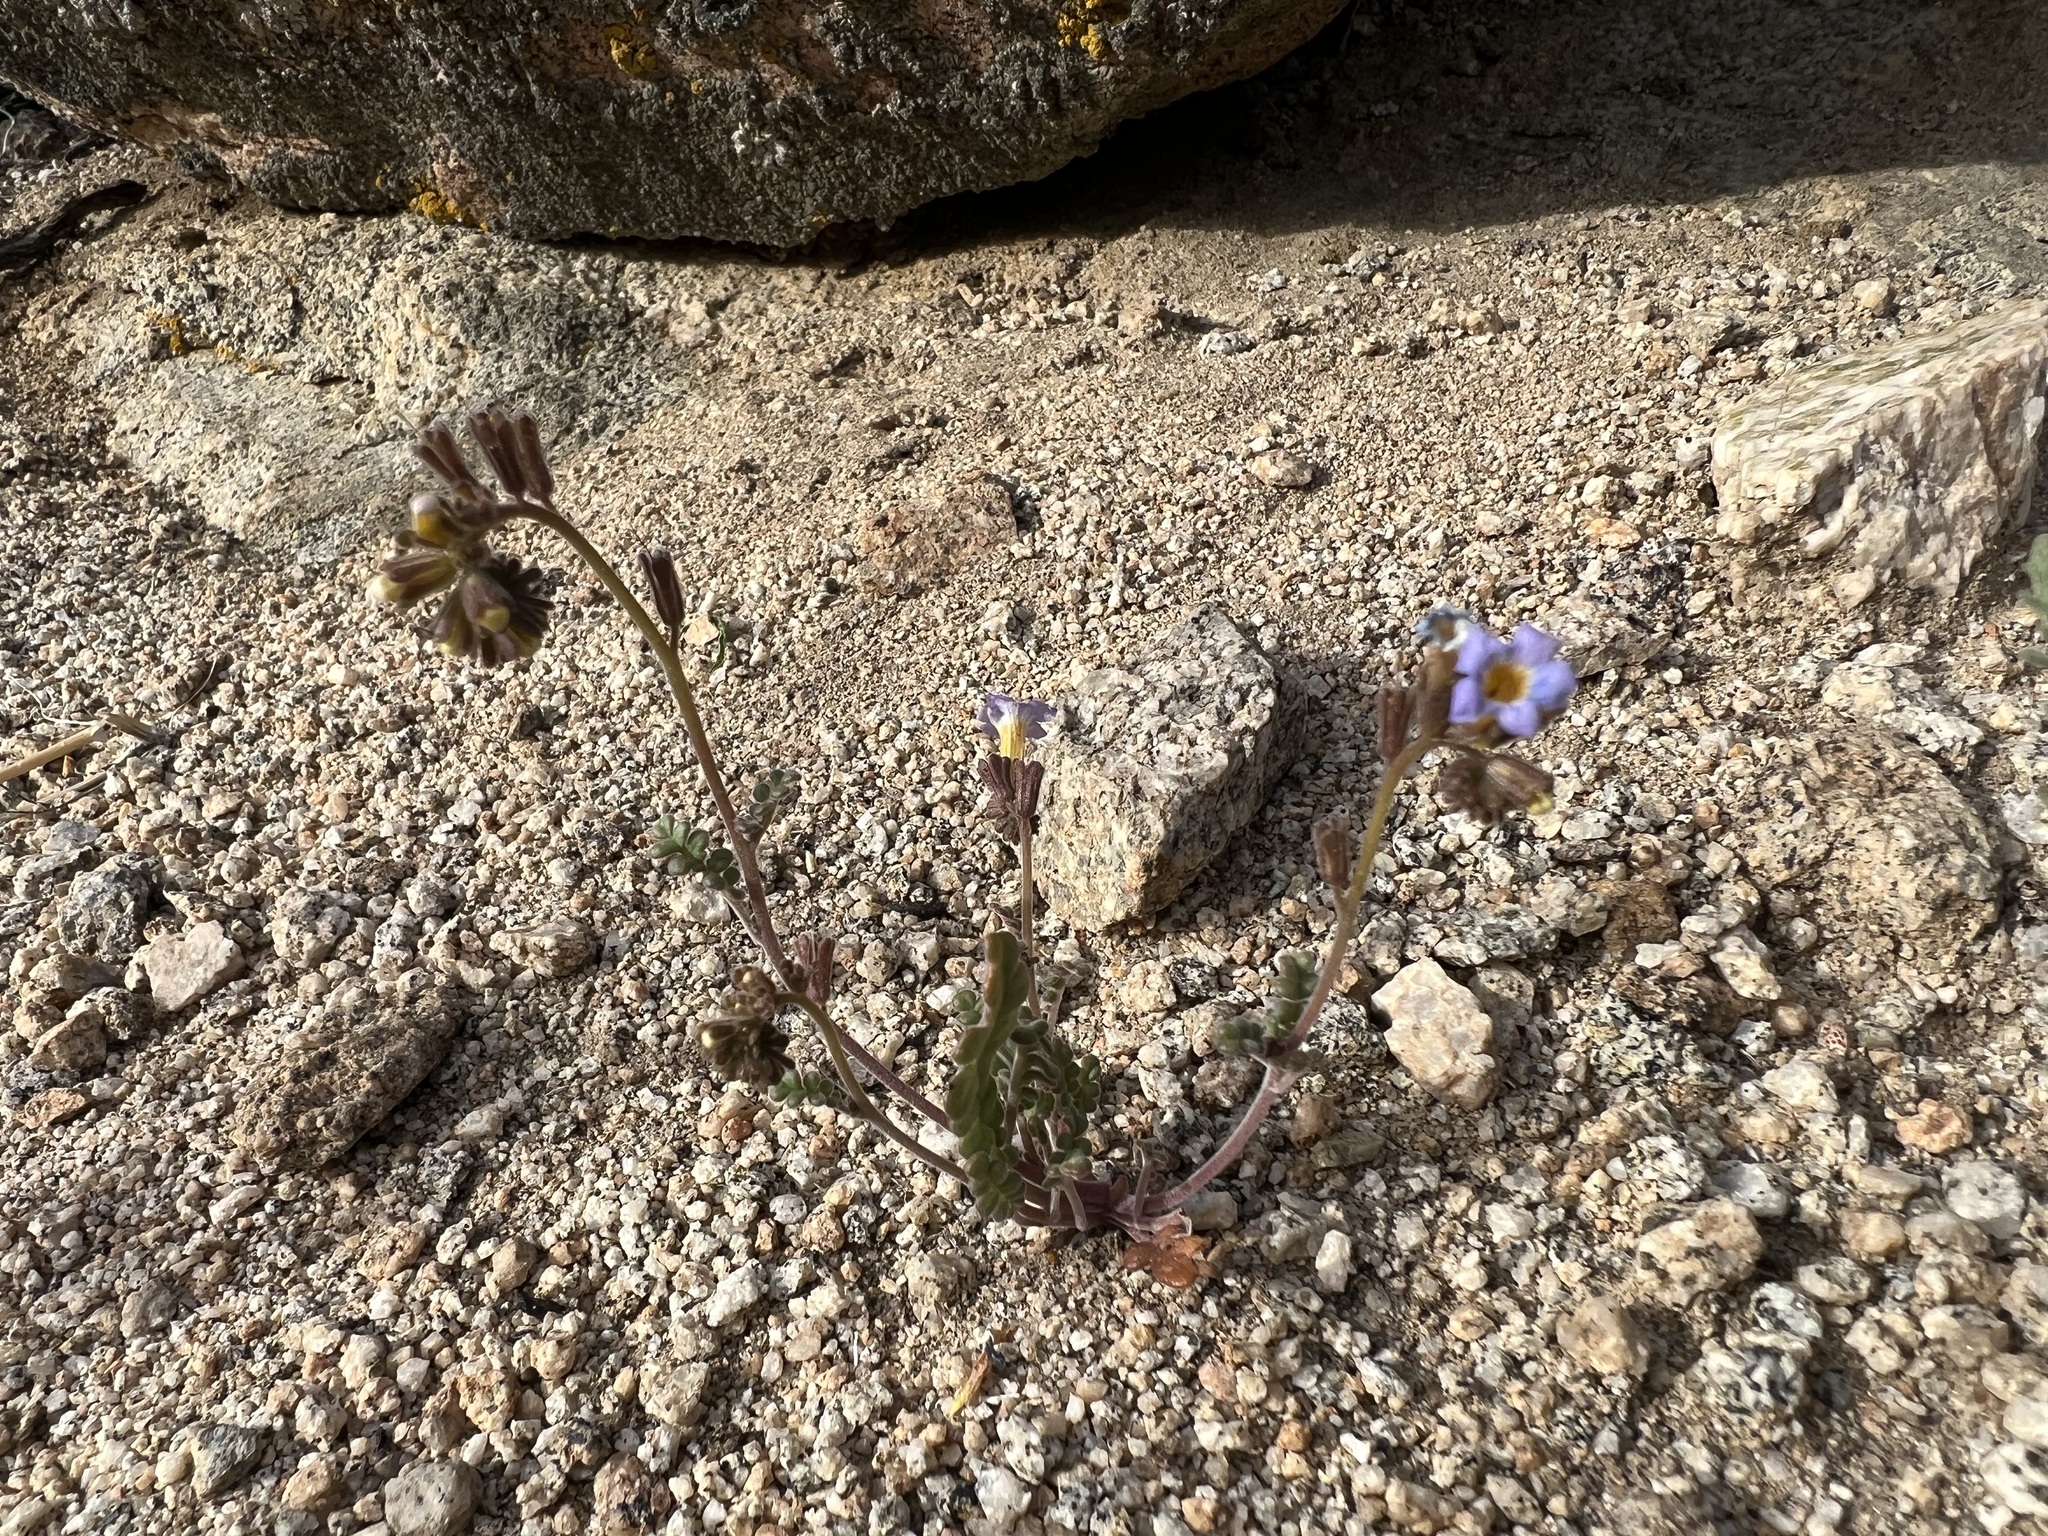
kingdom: Plantae
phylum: Tracheophyta
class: Magnoliopsida
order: Boraginales
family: Hydrophyllaceae
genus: Phacelia
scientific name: Phacelia fremontii
